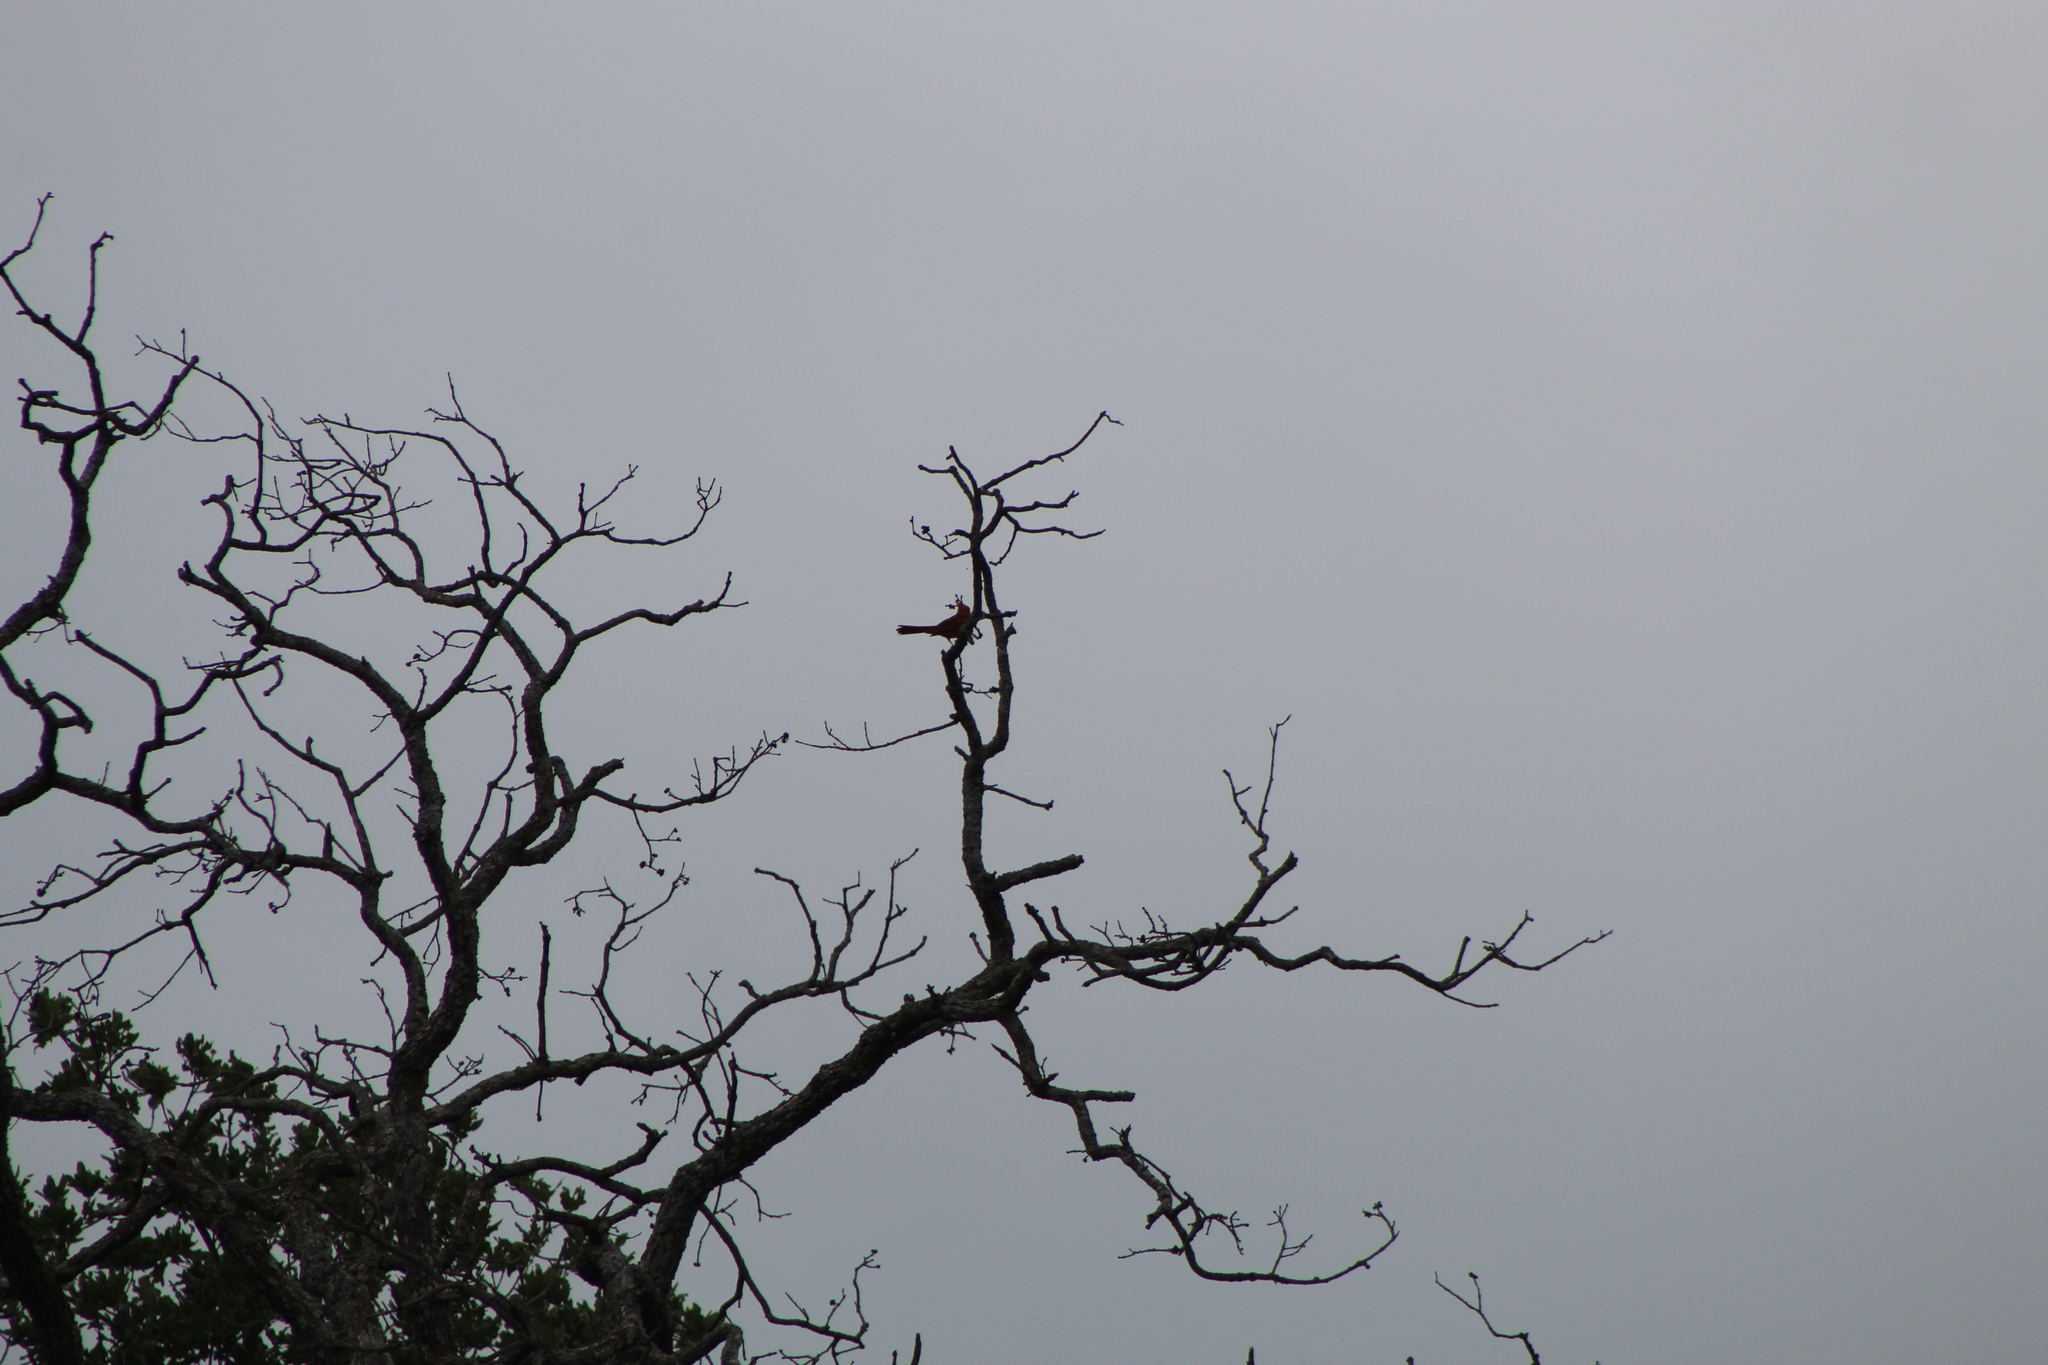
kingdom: Animalia
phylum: Chordata
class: Aves
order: Passeriformes
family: Cardinalidae
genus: Cardinalis
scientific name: Cardinalis cardinalis
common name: Northern cardinal
